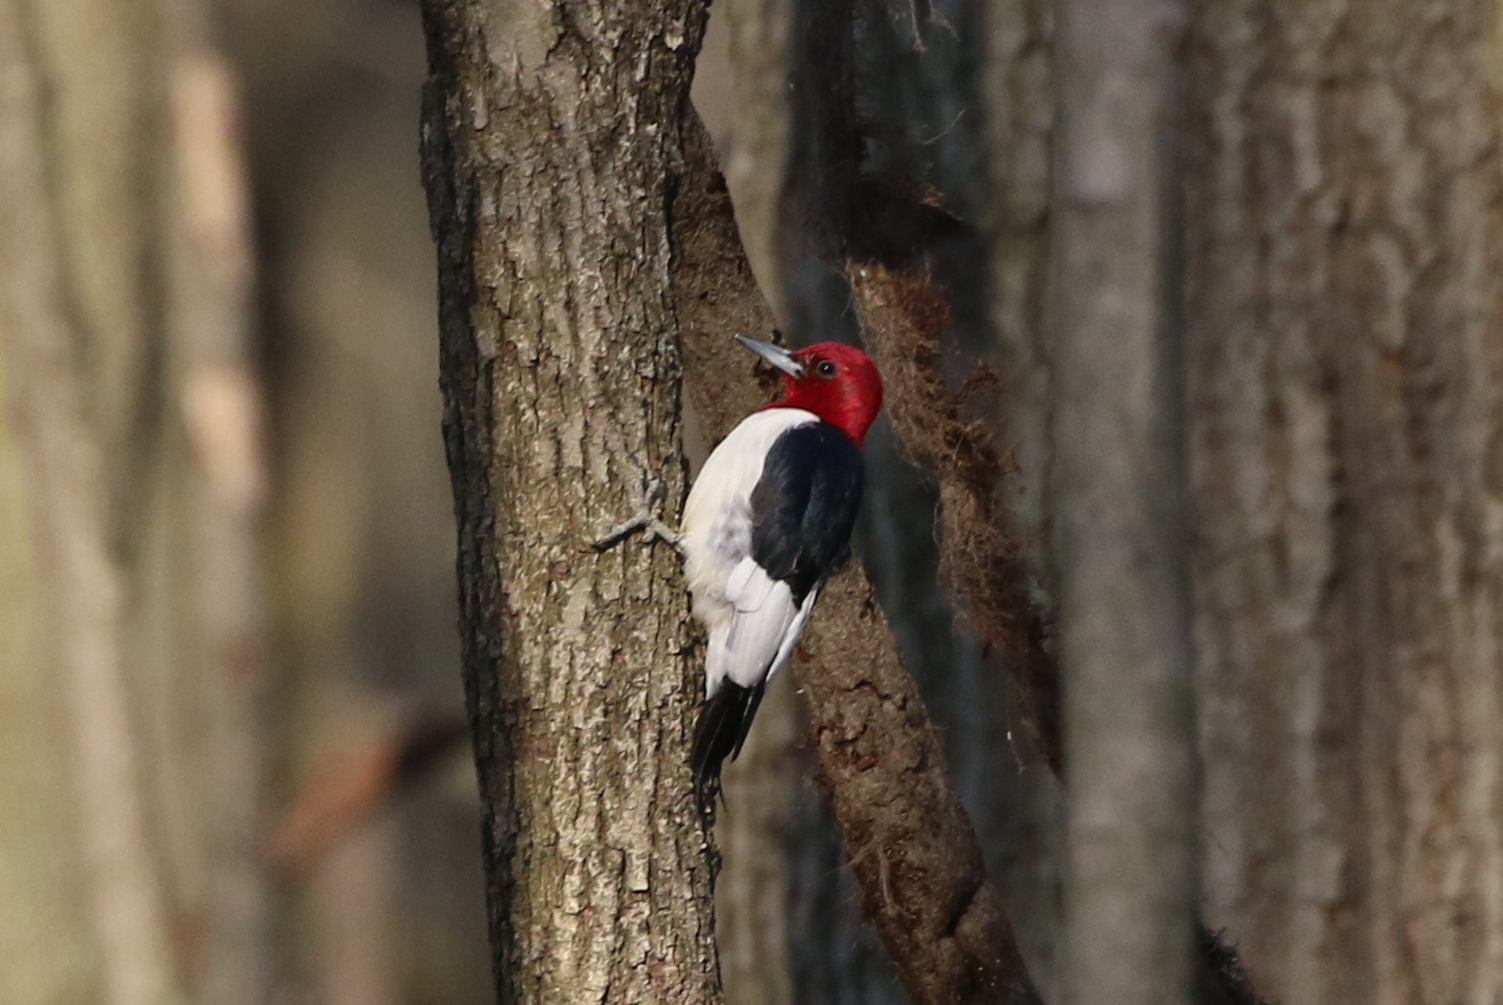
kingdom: Animalia
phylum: Chordata
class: Aves
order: Piciformes
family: Picidae
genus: Melanerpes
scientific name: Melanerpes erythrocephalus
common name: Red-headed woodpecker
